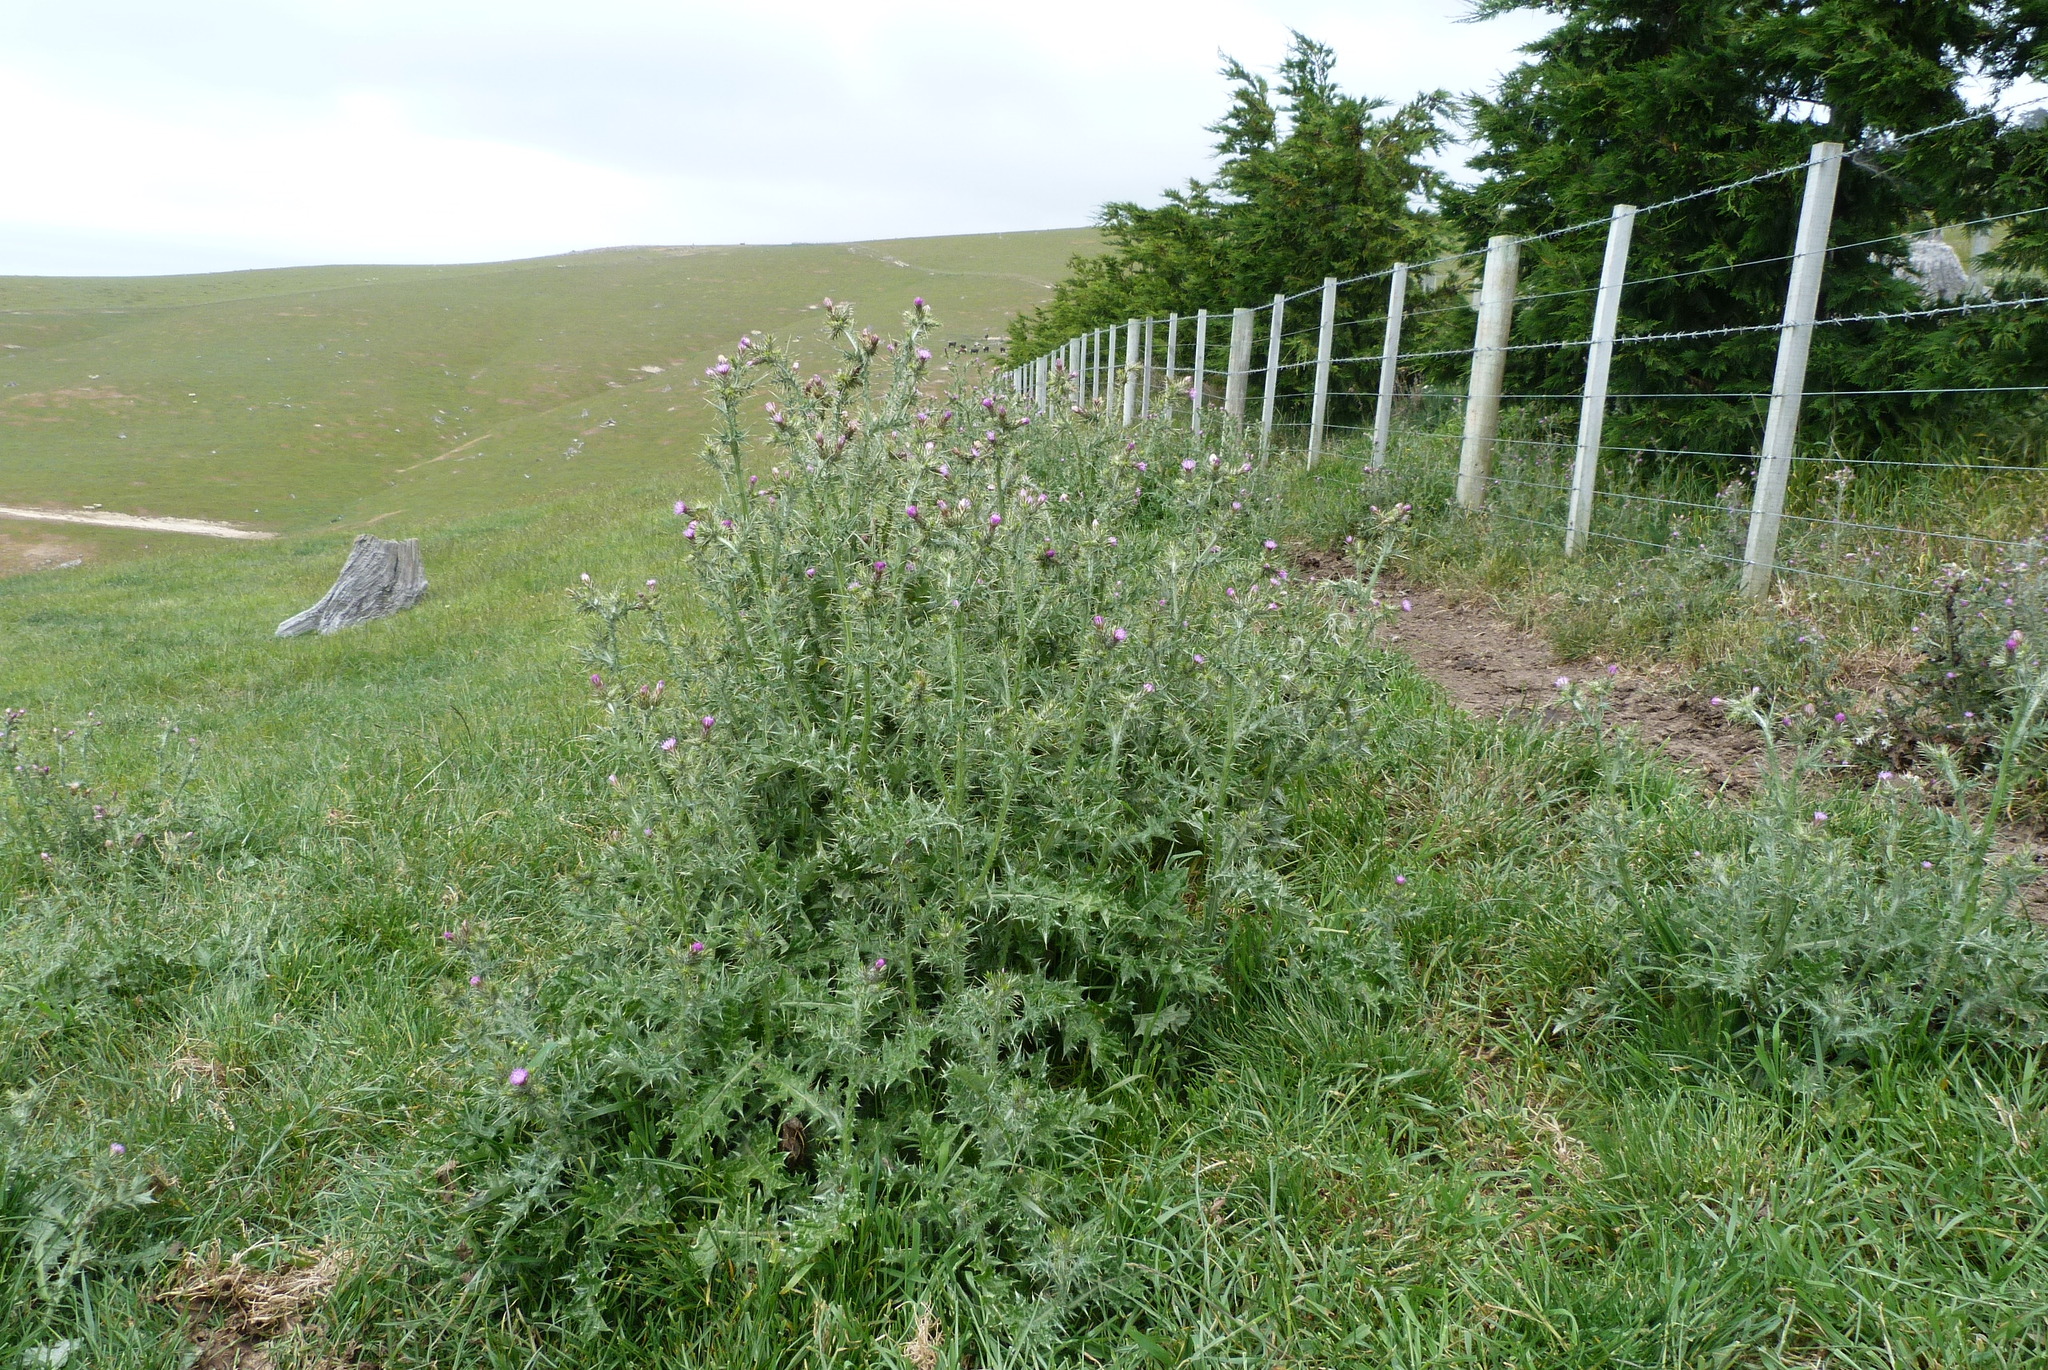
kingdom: Plantae
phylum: Tracheophyta
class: Magnoliopsida
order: Asterales
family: Asteraceae
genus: Carduus
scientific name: Carduus tenuiflorus
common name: Slender thistle
